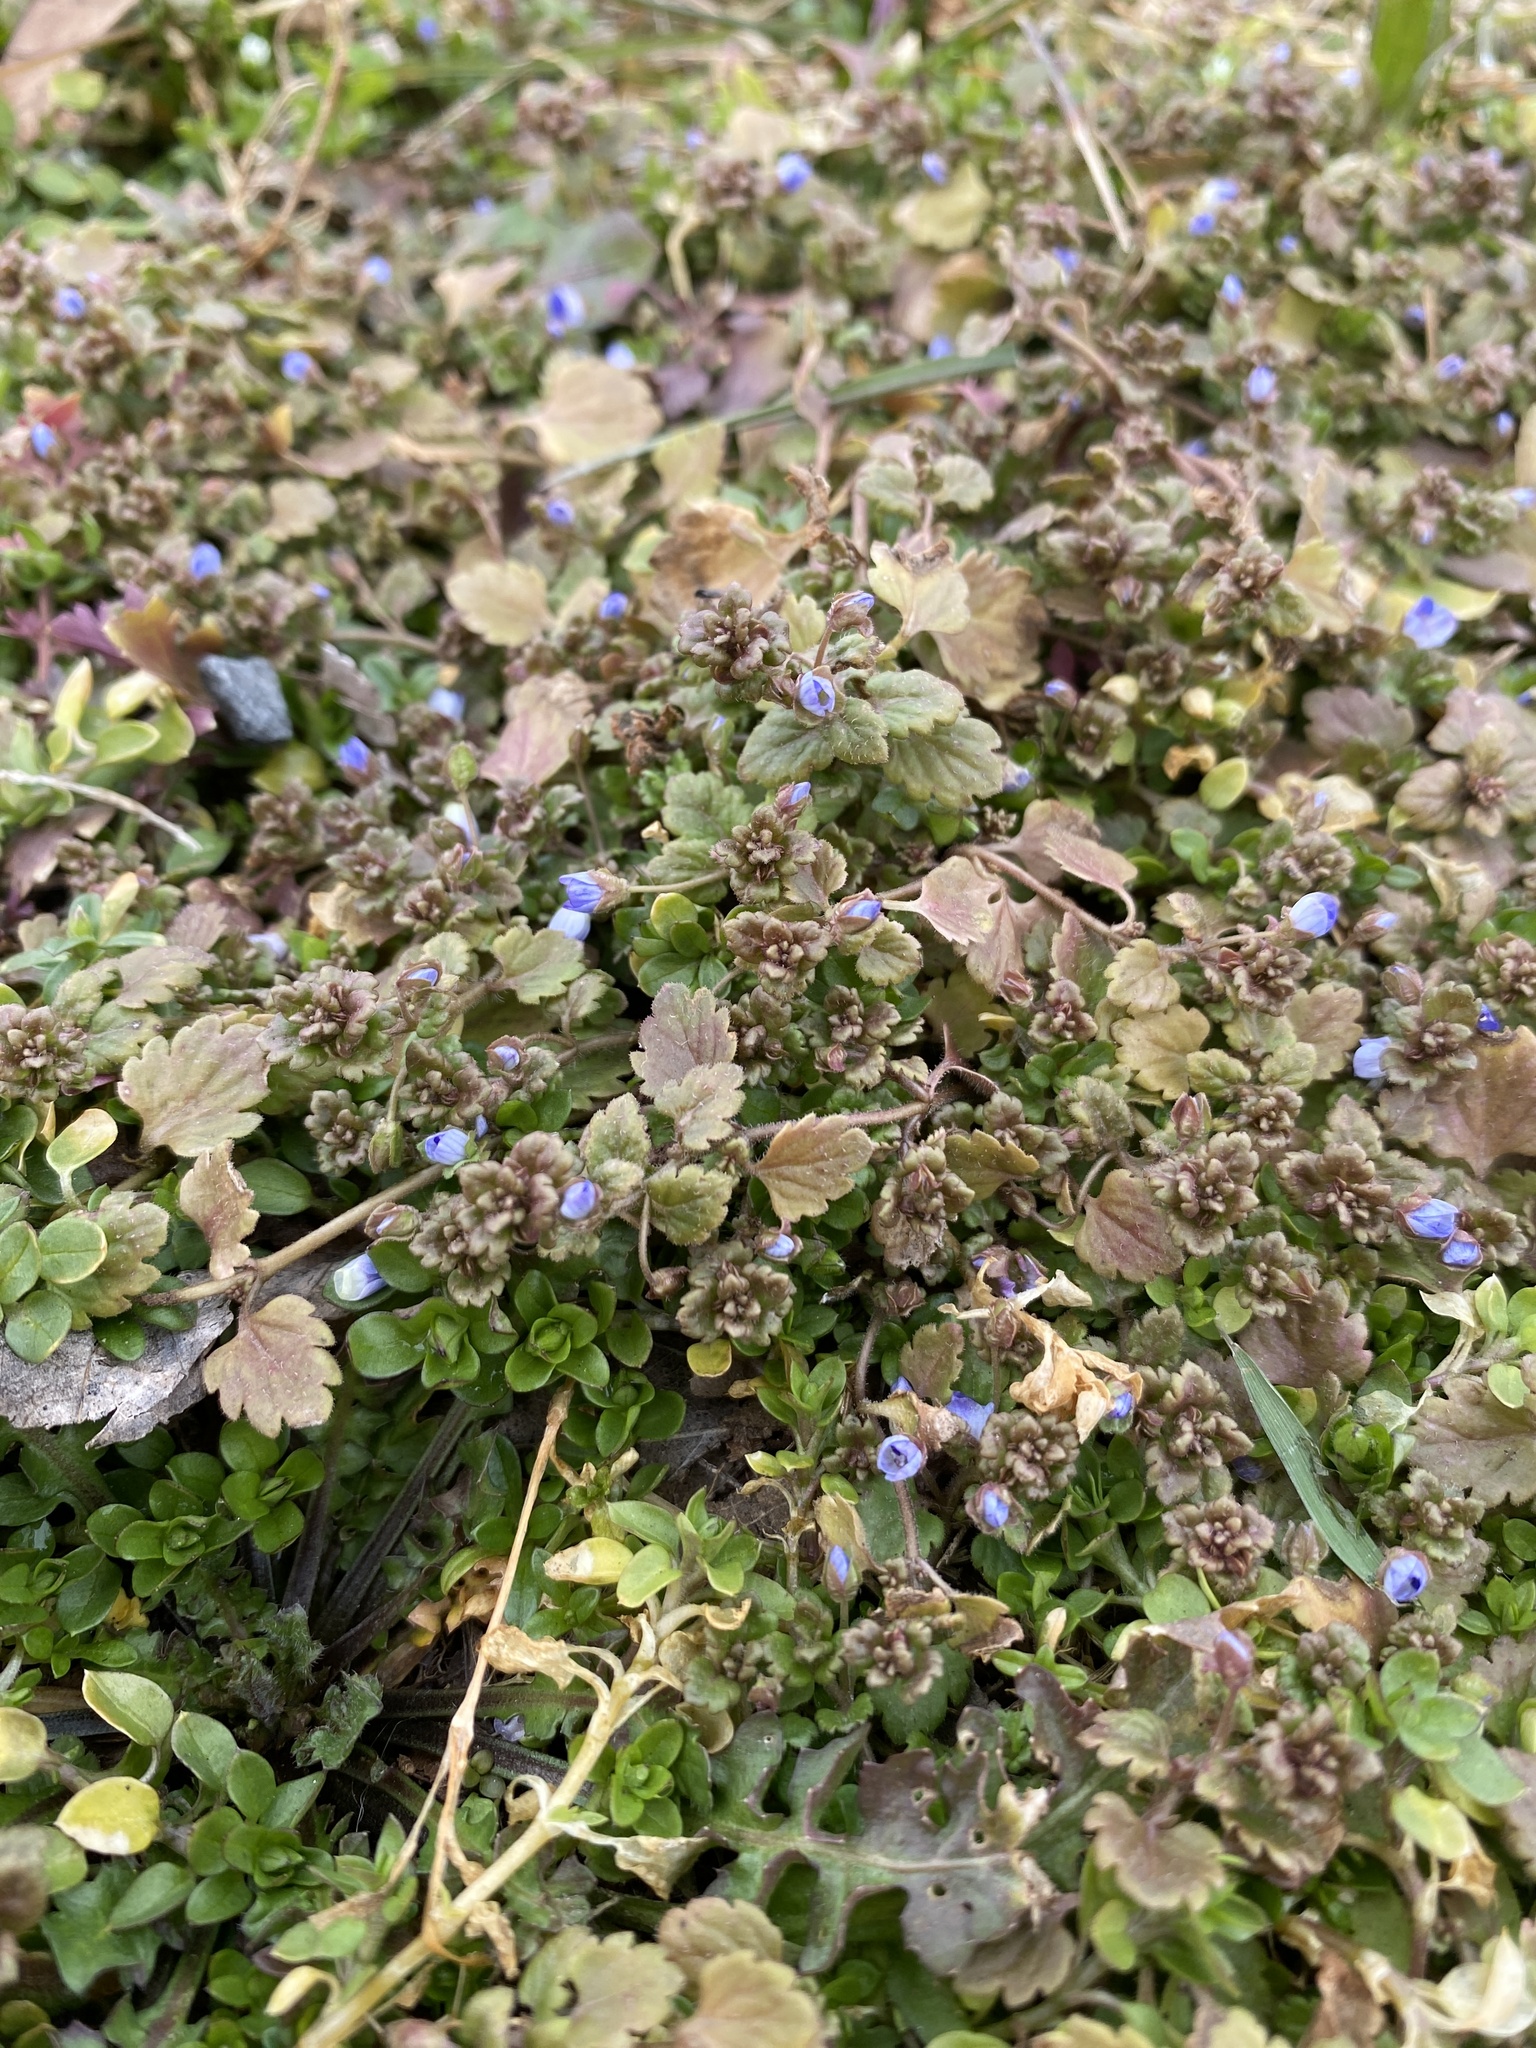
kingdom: Plantae
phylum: Tracheophyta
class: Magnoliopsida
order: Lamiales
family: Plantaginaceae
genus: Veronica
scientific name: Veronica polita
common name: Grey field-speedwell
